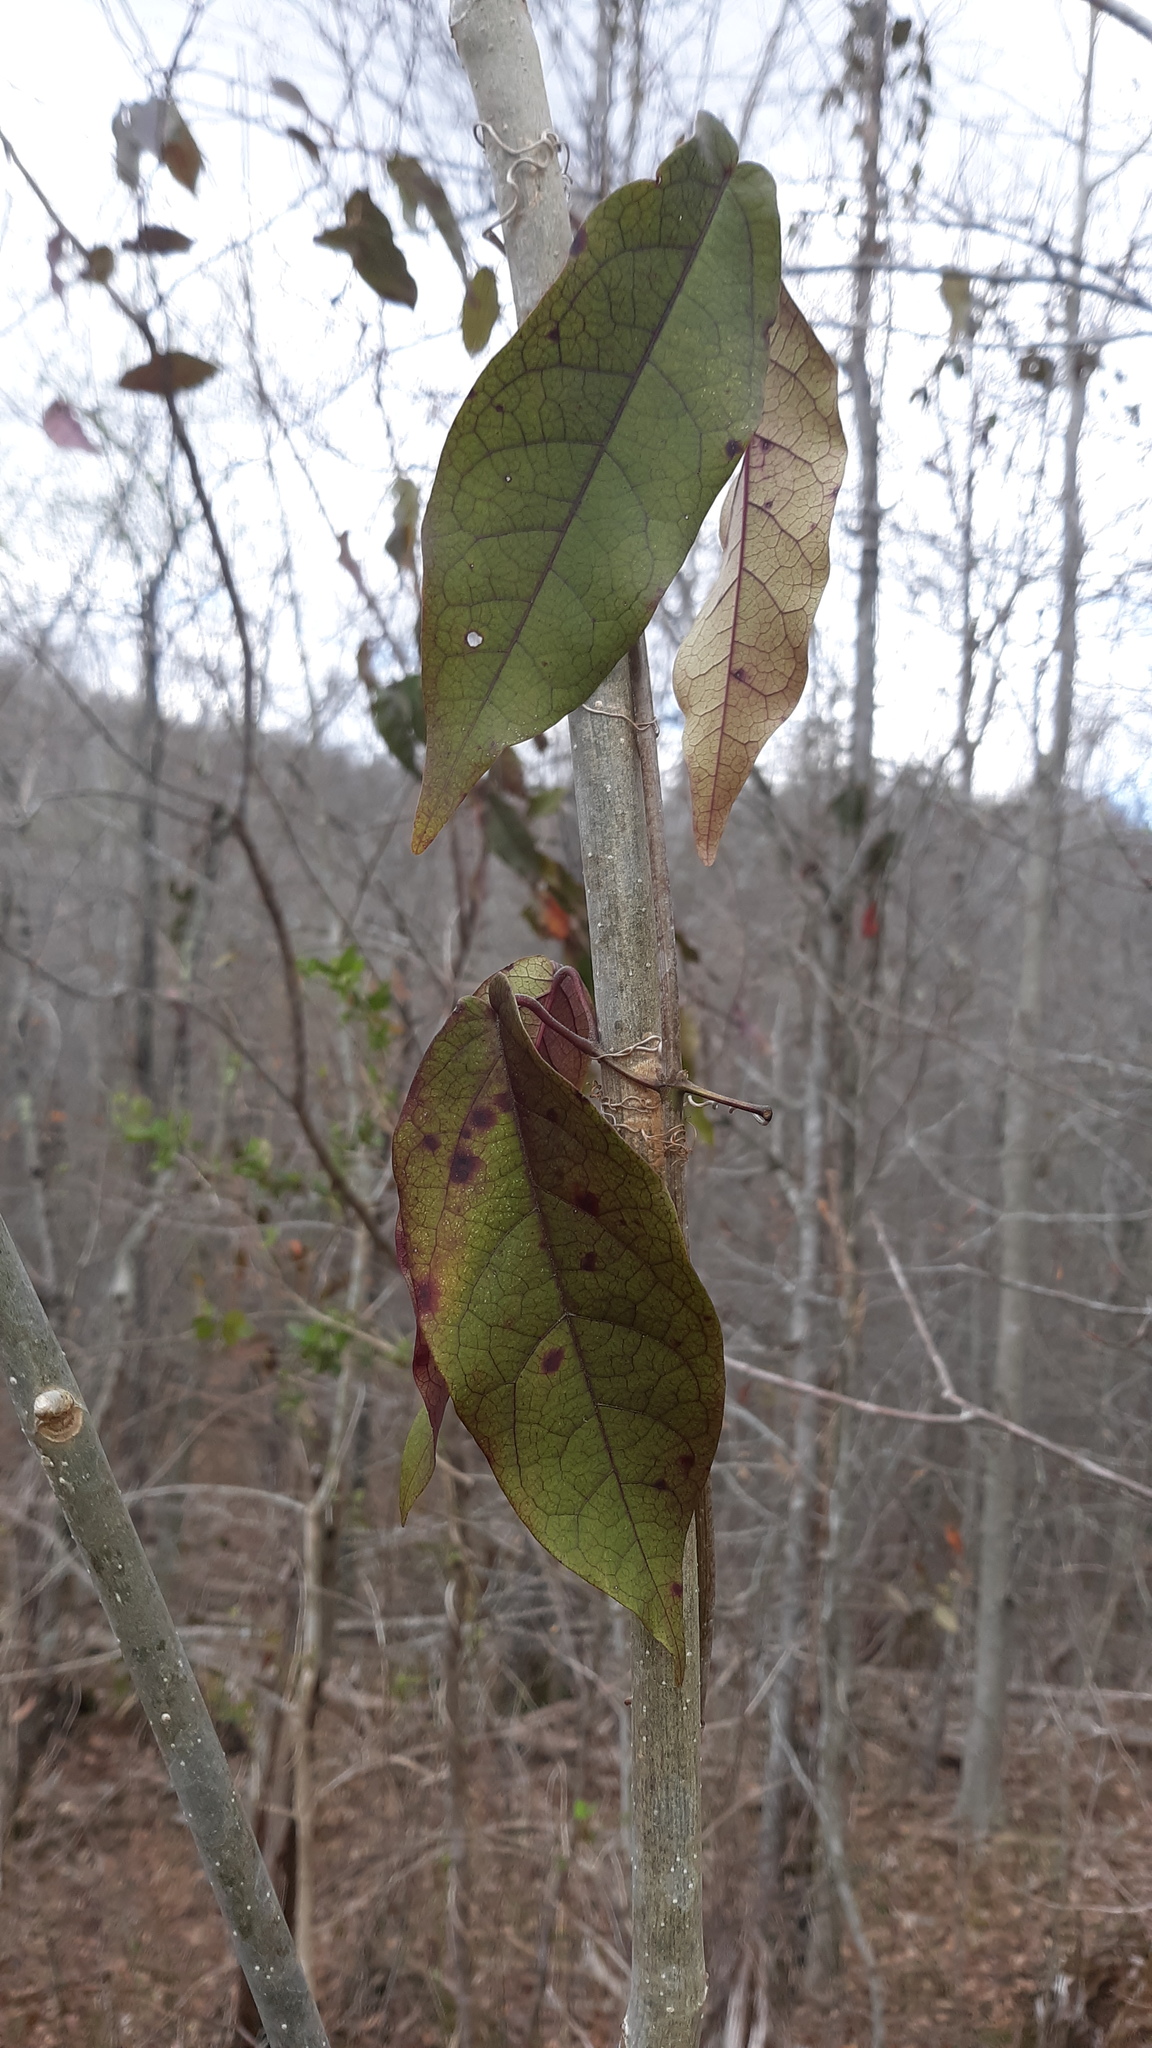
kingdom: Plantae
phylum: Tracheophyta
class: Magnoliopsida
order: Lamiales
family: Bignoniaceae
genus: Bignonia
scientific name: Bignonia capreolata
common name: Crossvine
